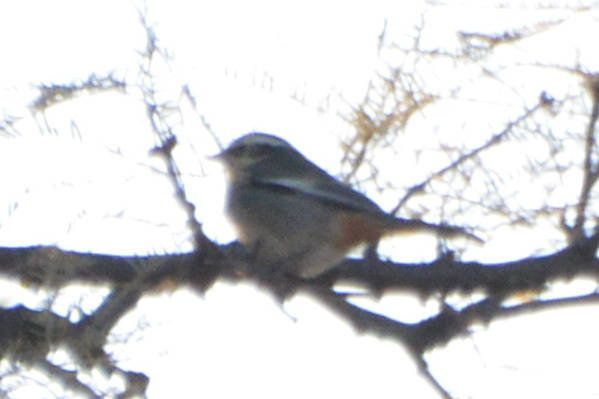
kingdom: Animalia
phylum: Chordata
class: Aves
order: Passeriformes
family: Thraupidae
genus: Microspingus
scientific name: Microspingus torquatus
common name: Ringed warbling-finch
